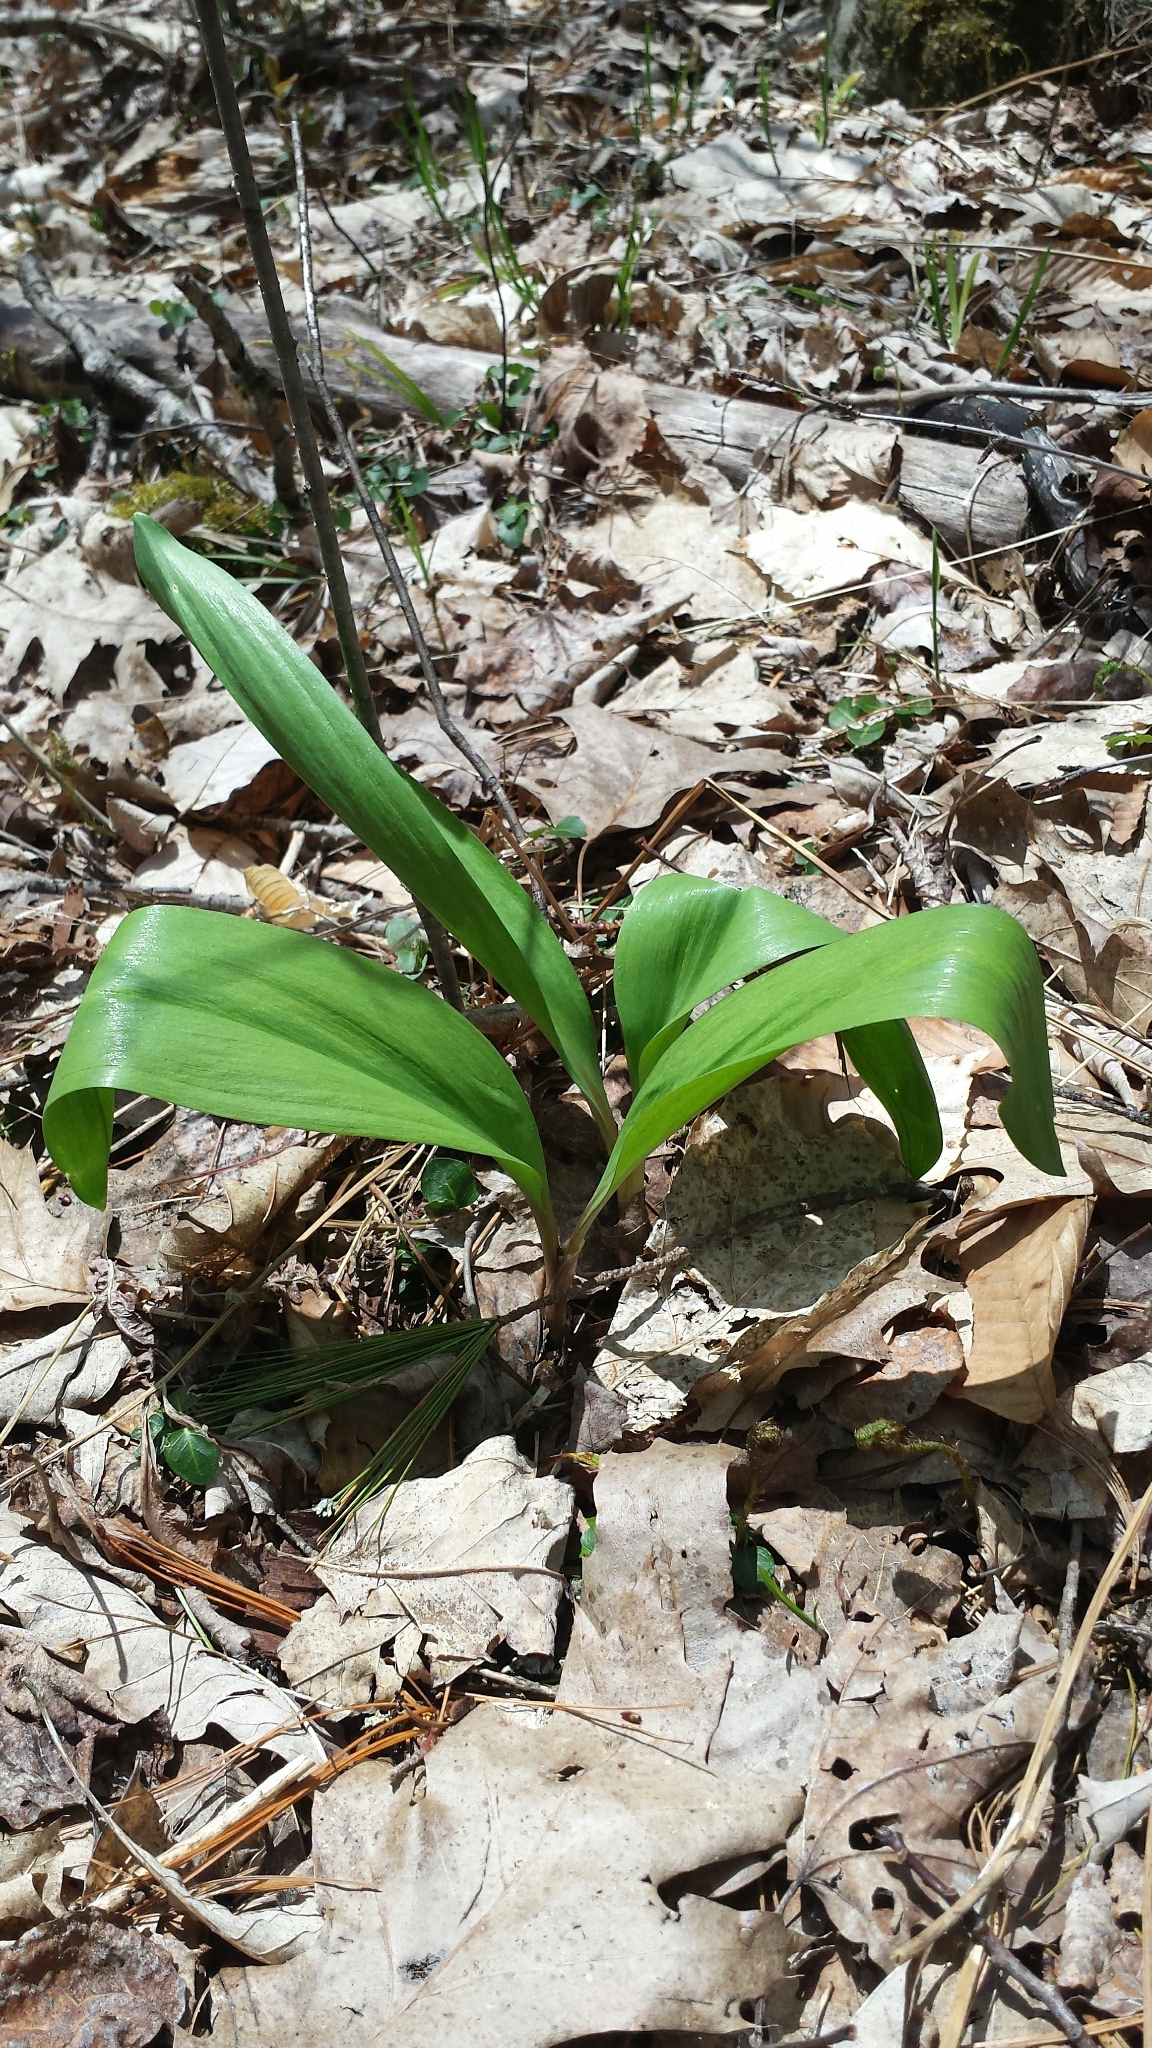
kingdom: Plantae
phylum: Tracheophyta
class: Liliopsida
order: Asparagales
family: Amaryllidaceae
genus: Allium
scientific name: Allium tricoccum
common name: Ramp
